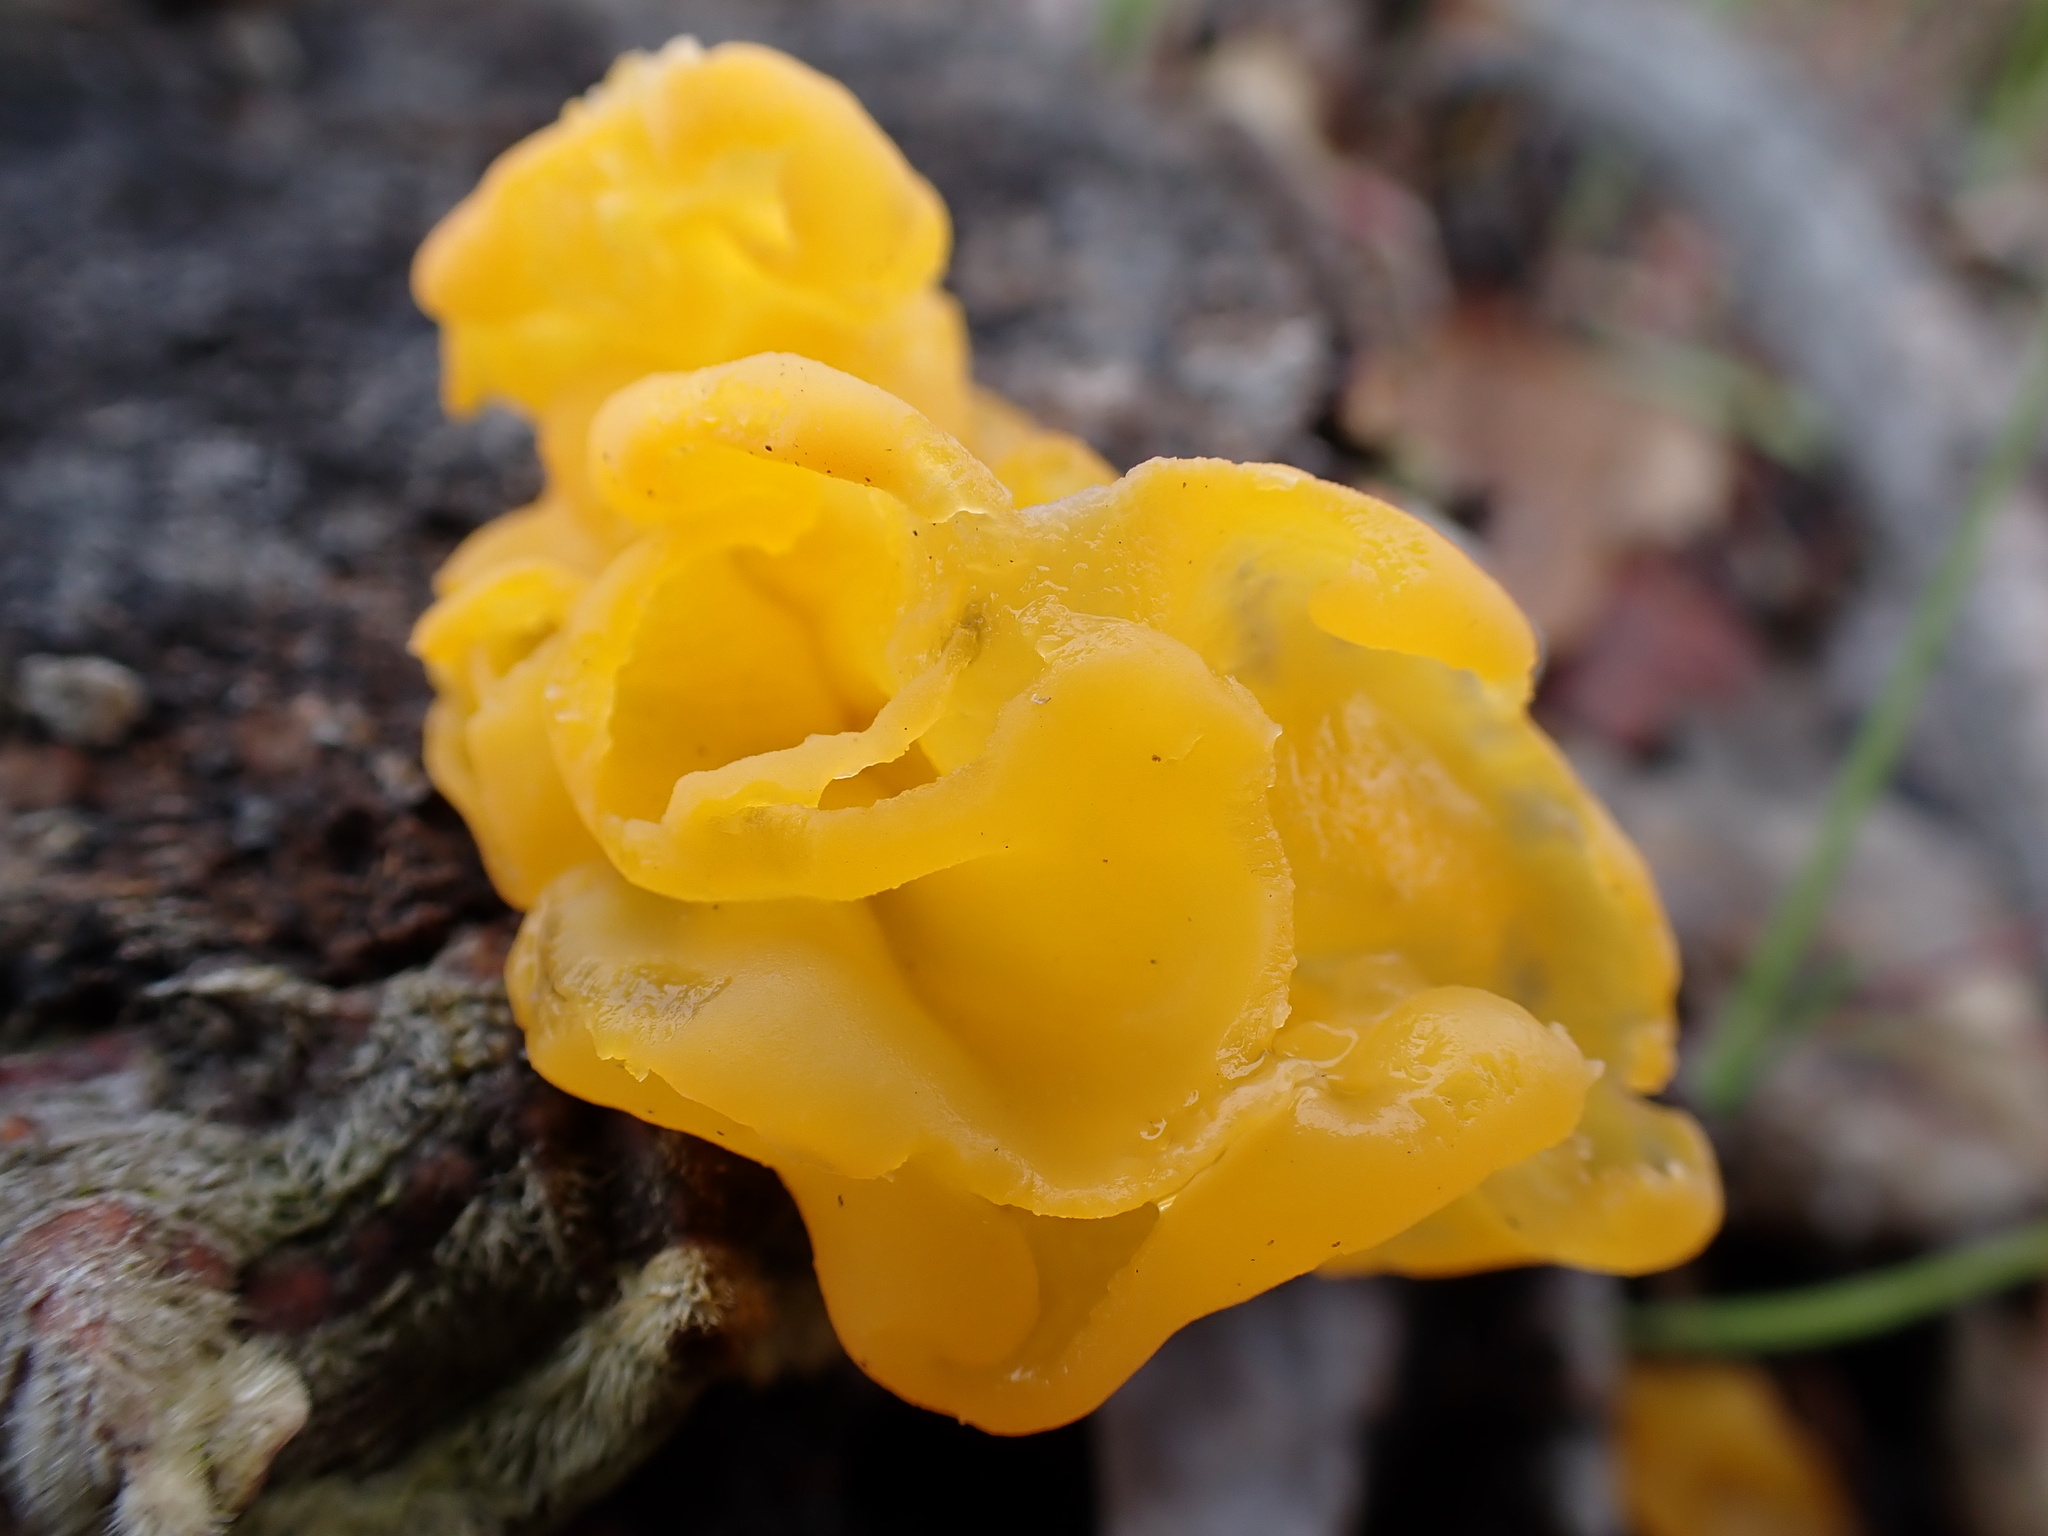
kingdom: Fungi
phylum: Basidiomycota
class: Tremellomycetes
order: Tremellales
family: Naemateliaceae
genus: Naematelia
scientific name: Naematelia aurantia
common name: Golden ear
